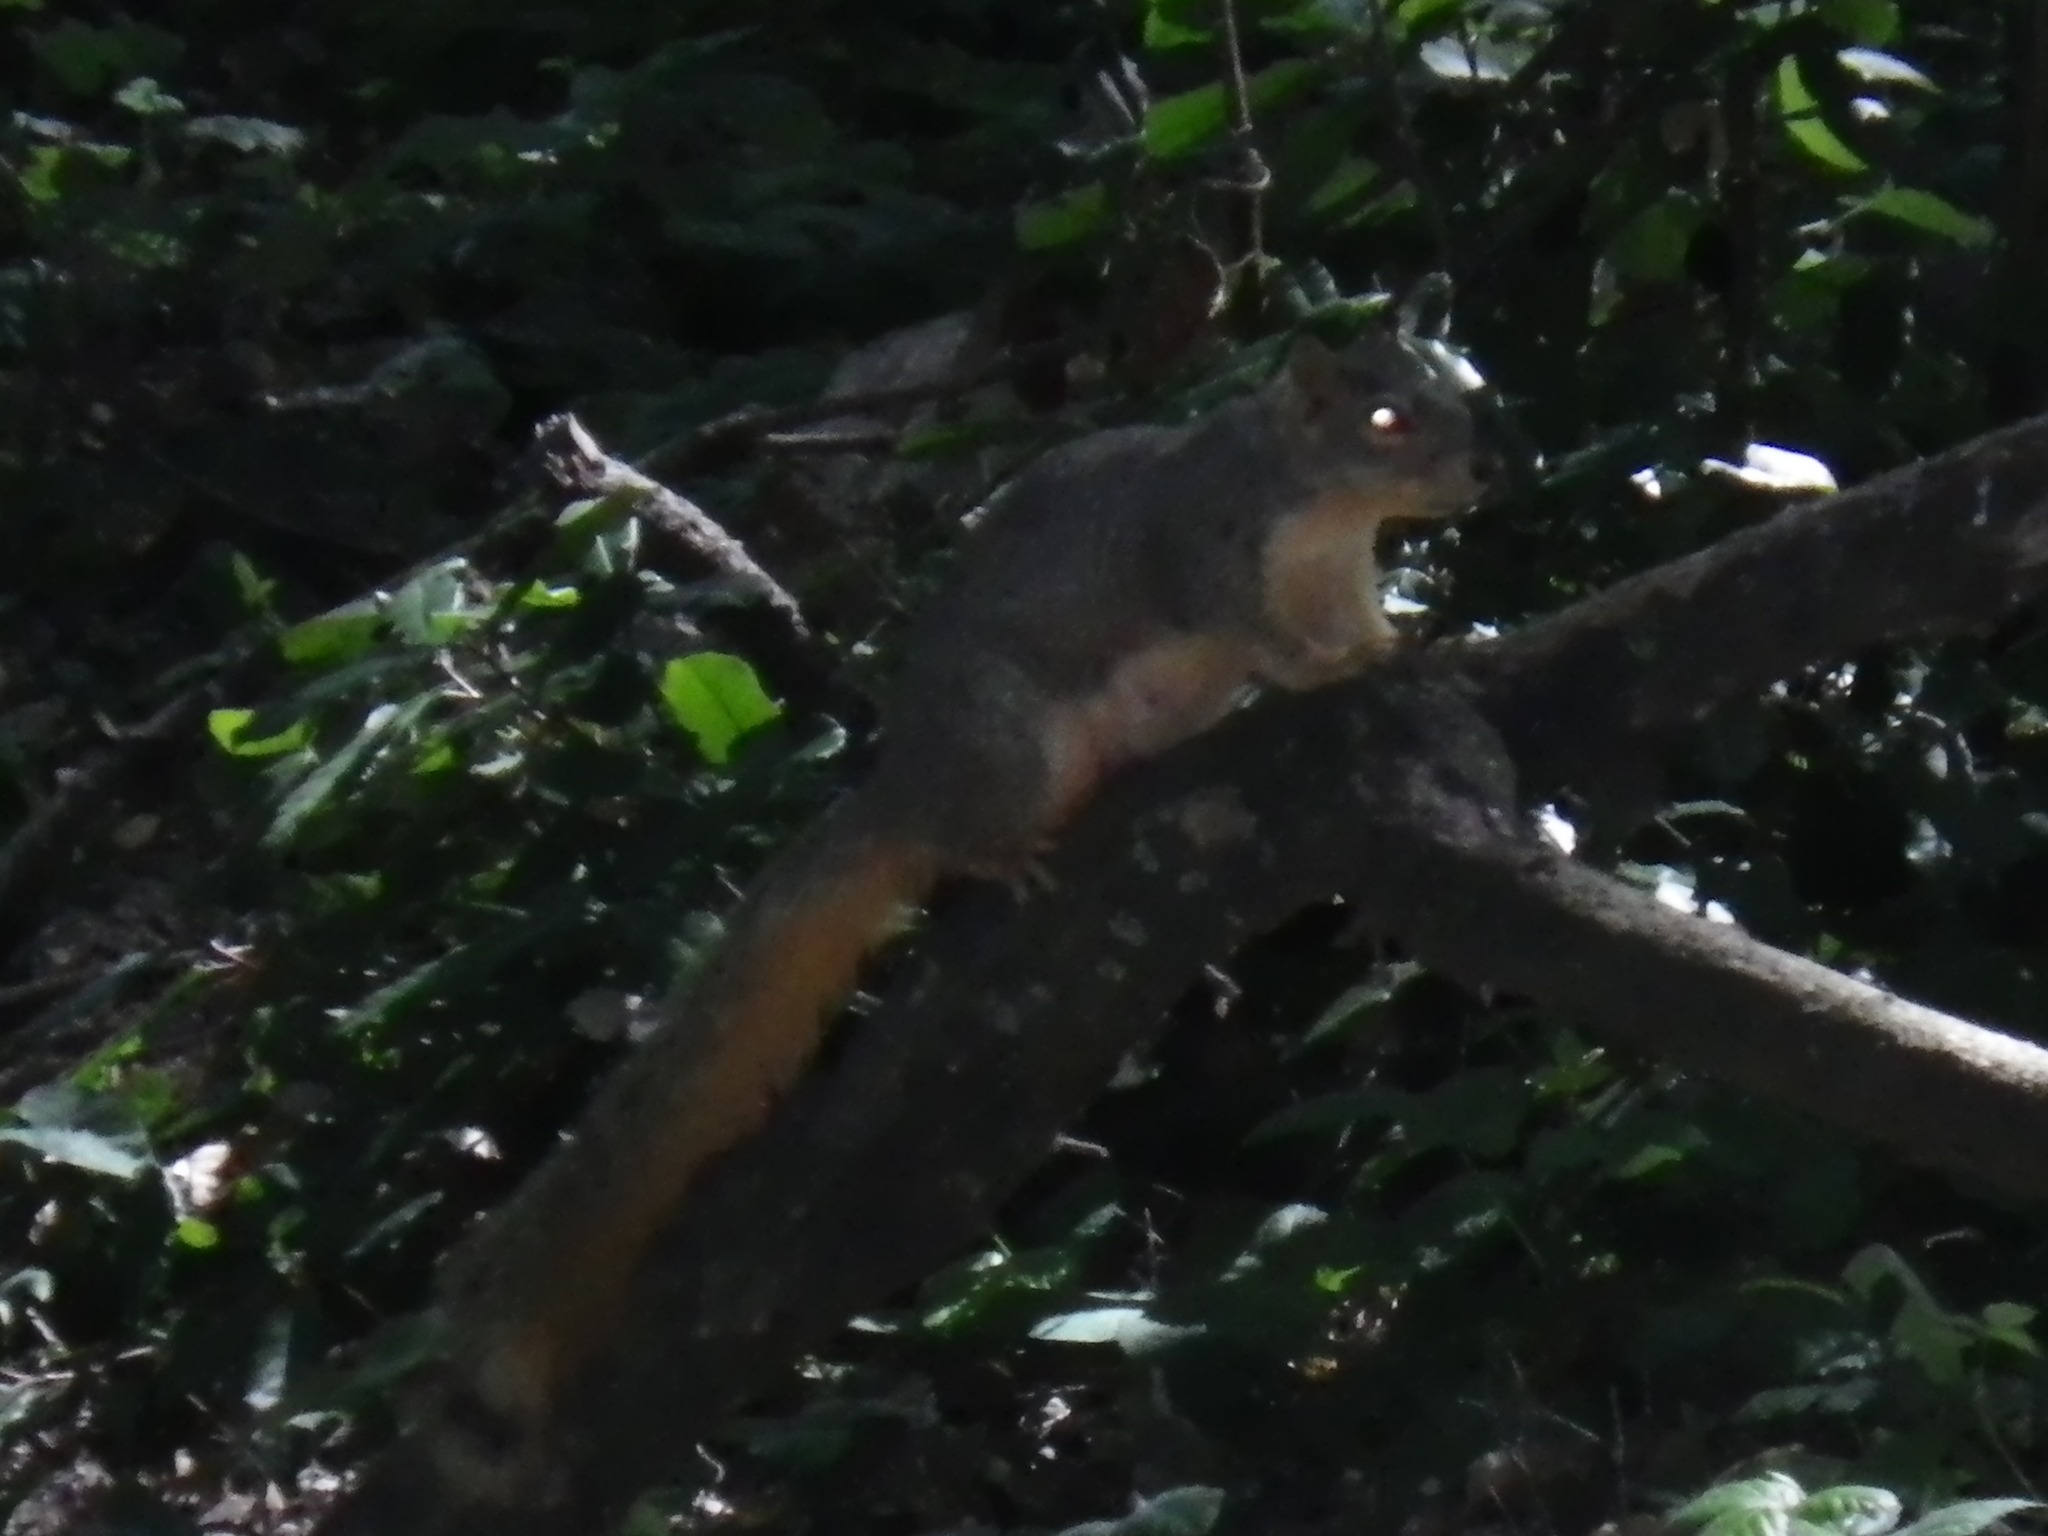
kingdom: Animalia
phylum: Chordata
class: Mammalia
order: Rodentia
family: Sciuridae
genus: Sciurus
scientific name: Sciurus niger
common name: Fox squirrel
